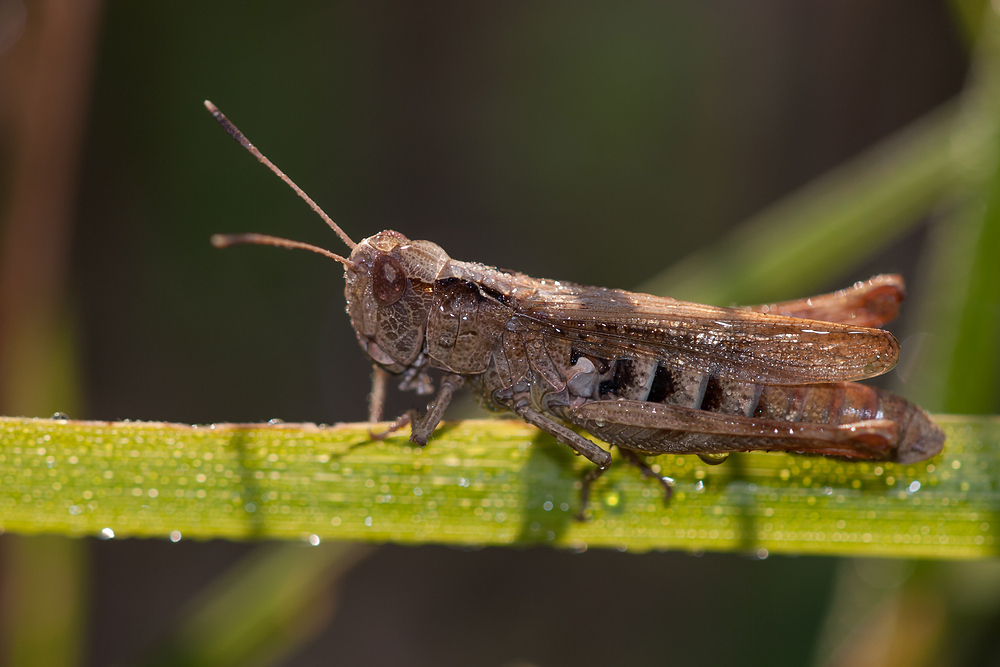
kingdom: Animalia
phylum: Arthropoda
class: Insecta
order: Orthoptera
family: Acrididae
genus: Gomphocerippus
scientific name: Gomphocerippus rufus
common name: Rufous grasshopper
